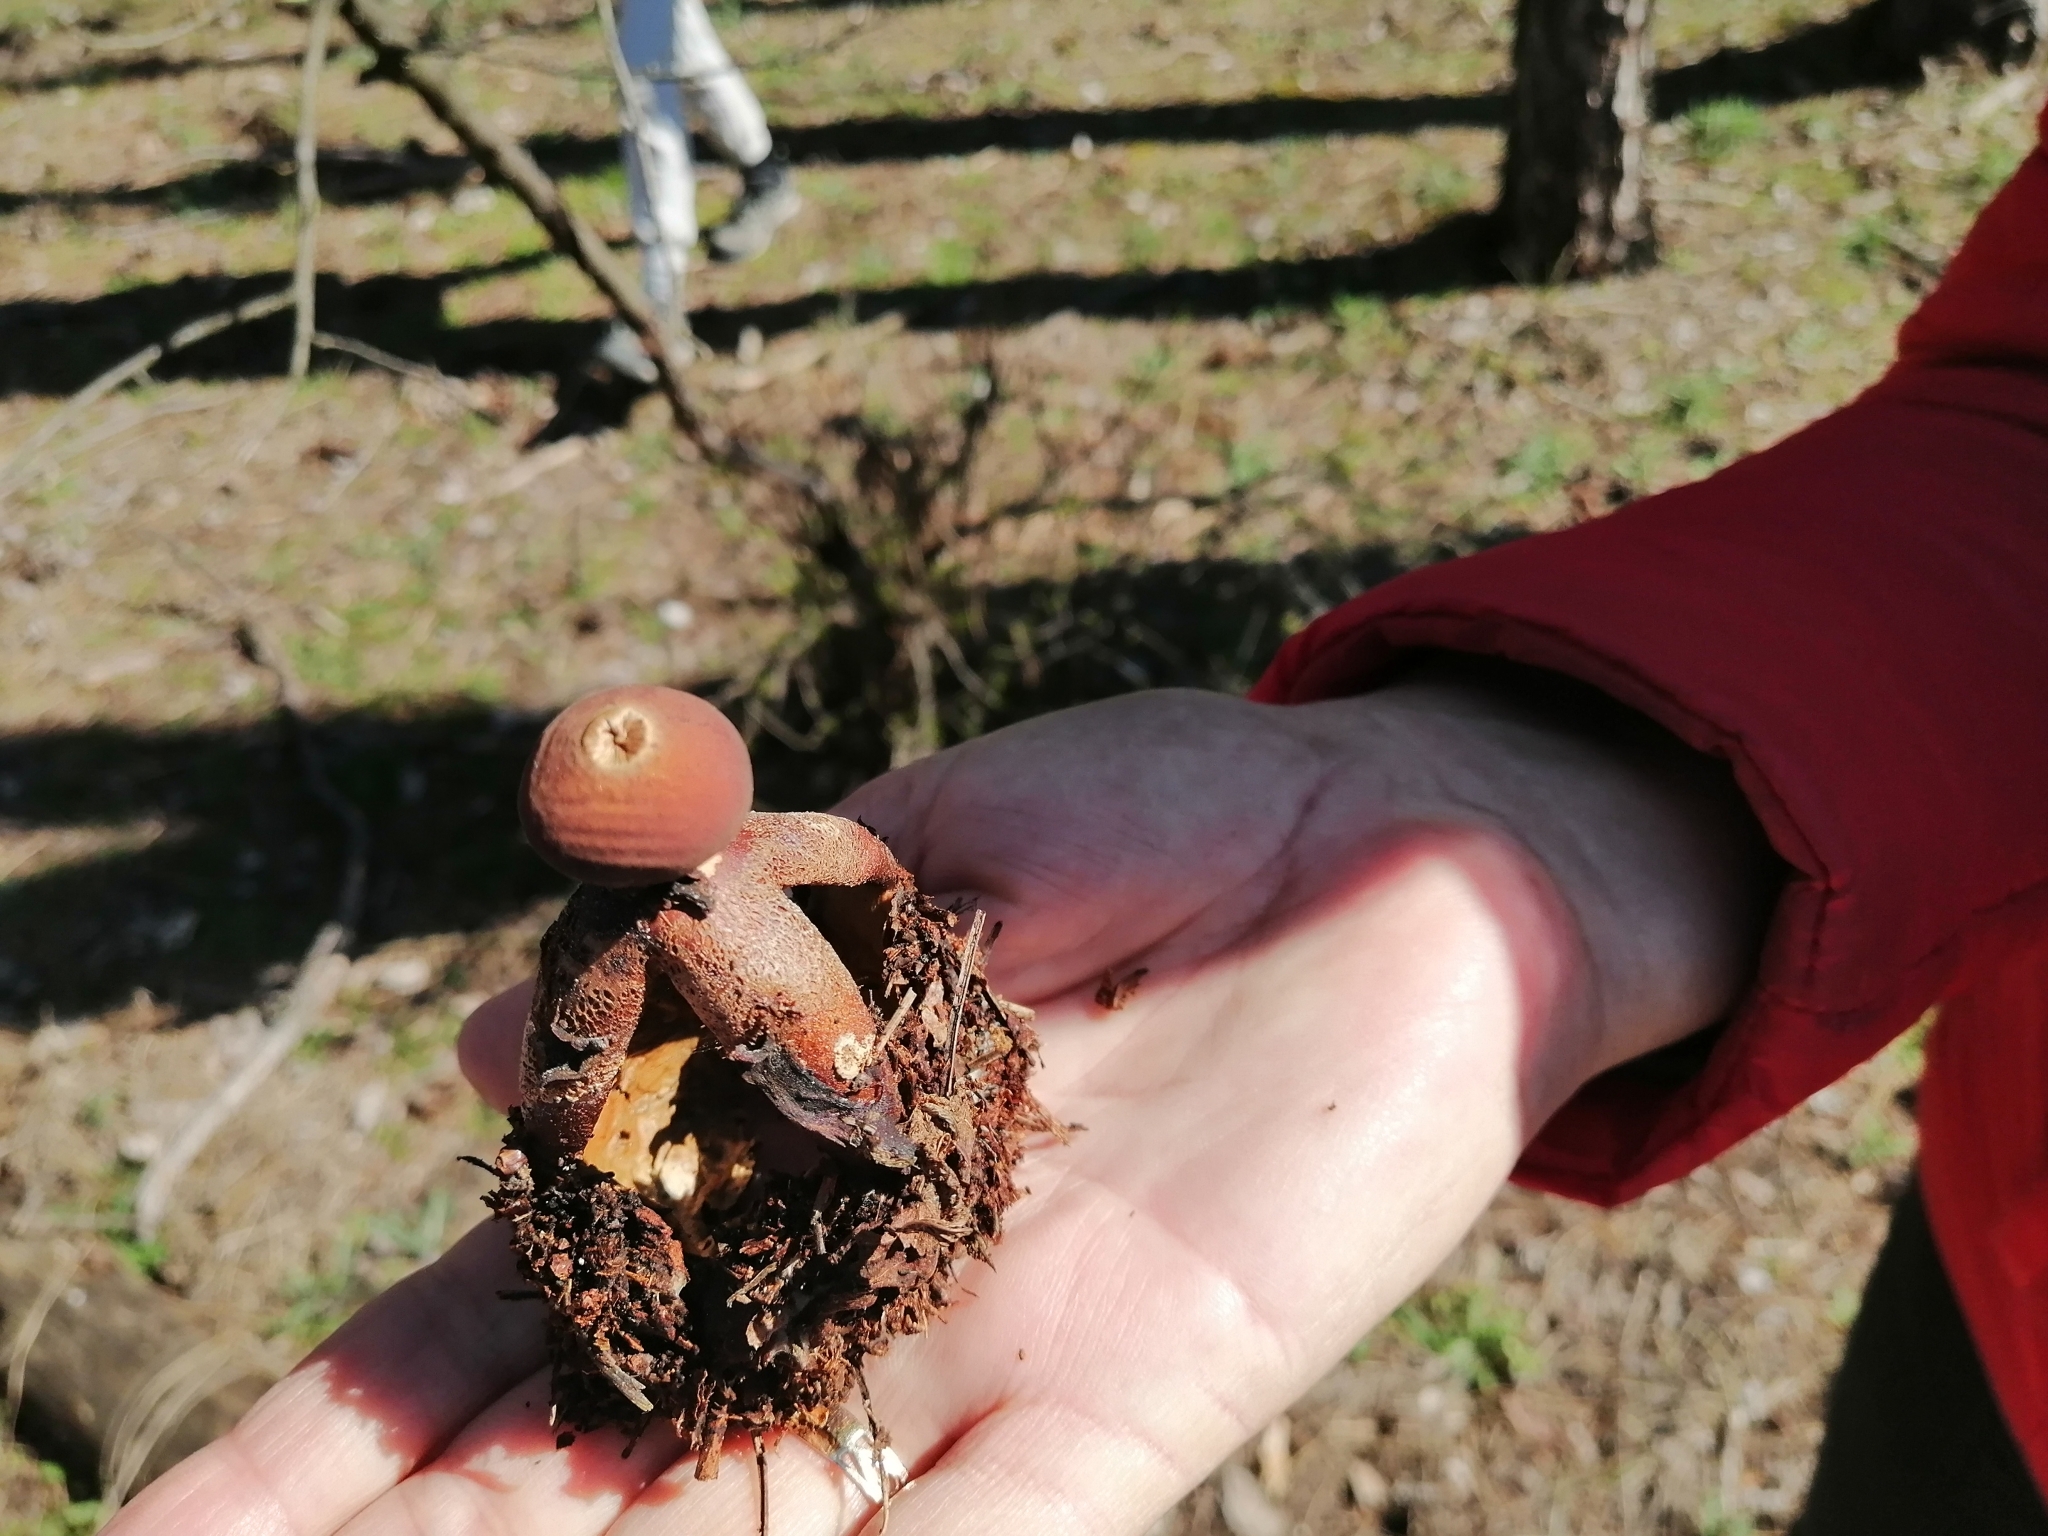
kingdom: Fungi
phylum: Basidiomycota
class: Agaricomycetes
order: Geastrales
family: Geastraceae
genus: Geastrum
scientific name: Geastrum fornicatum
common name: Arched earthstar
